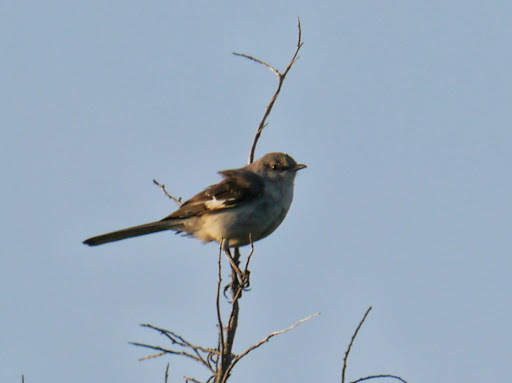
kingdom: Animalia
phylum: Chordata
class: Aves
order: Passeriformes
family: Mimidae
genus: Mimus
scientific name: Mimus polyglottos
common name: Northern mockingbird
